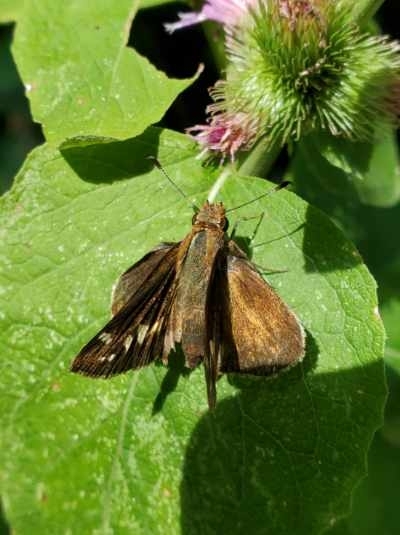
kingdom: Animalia
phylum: Arthropoda
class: Insecta
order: Lepidoptera
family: Hesperiidae
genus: Lon
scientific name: Lon zabulon
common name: Zabulon skipper
